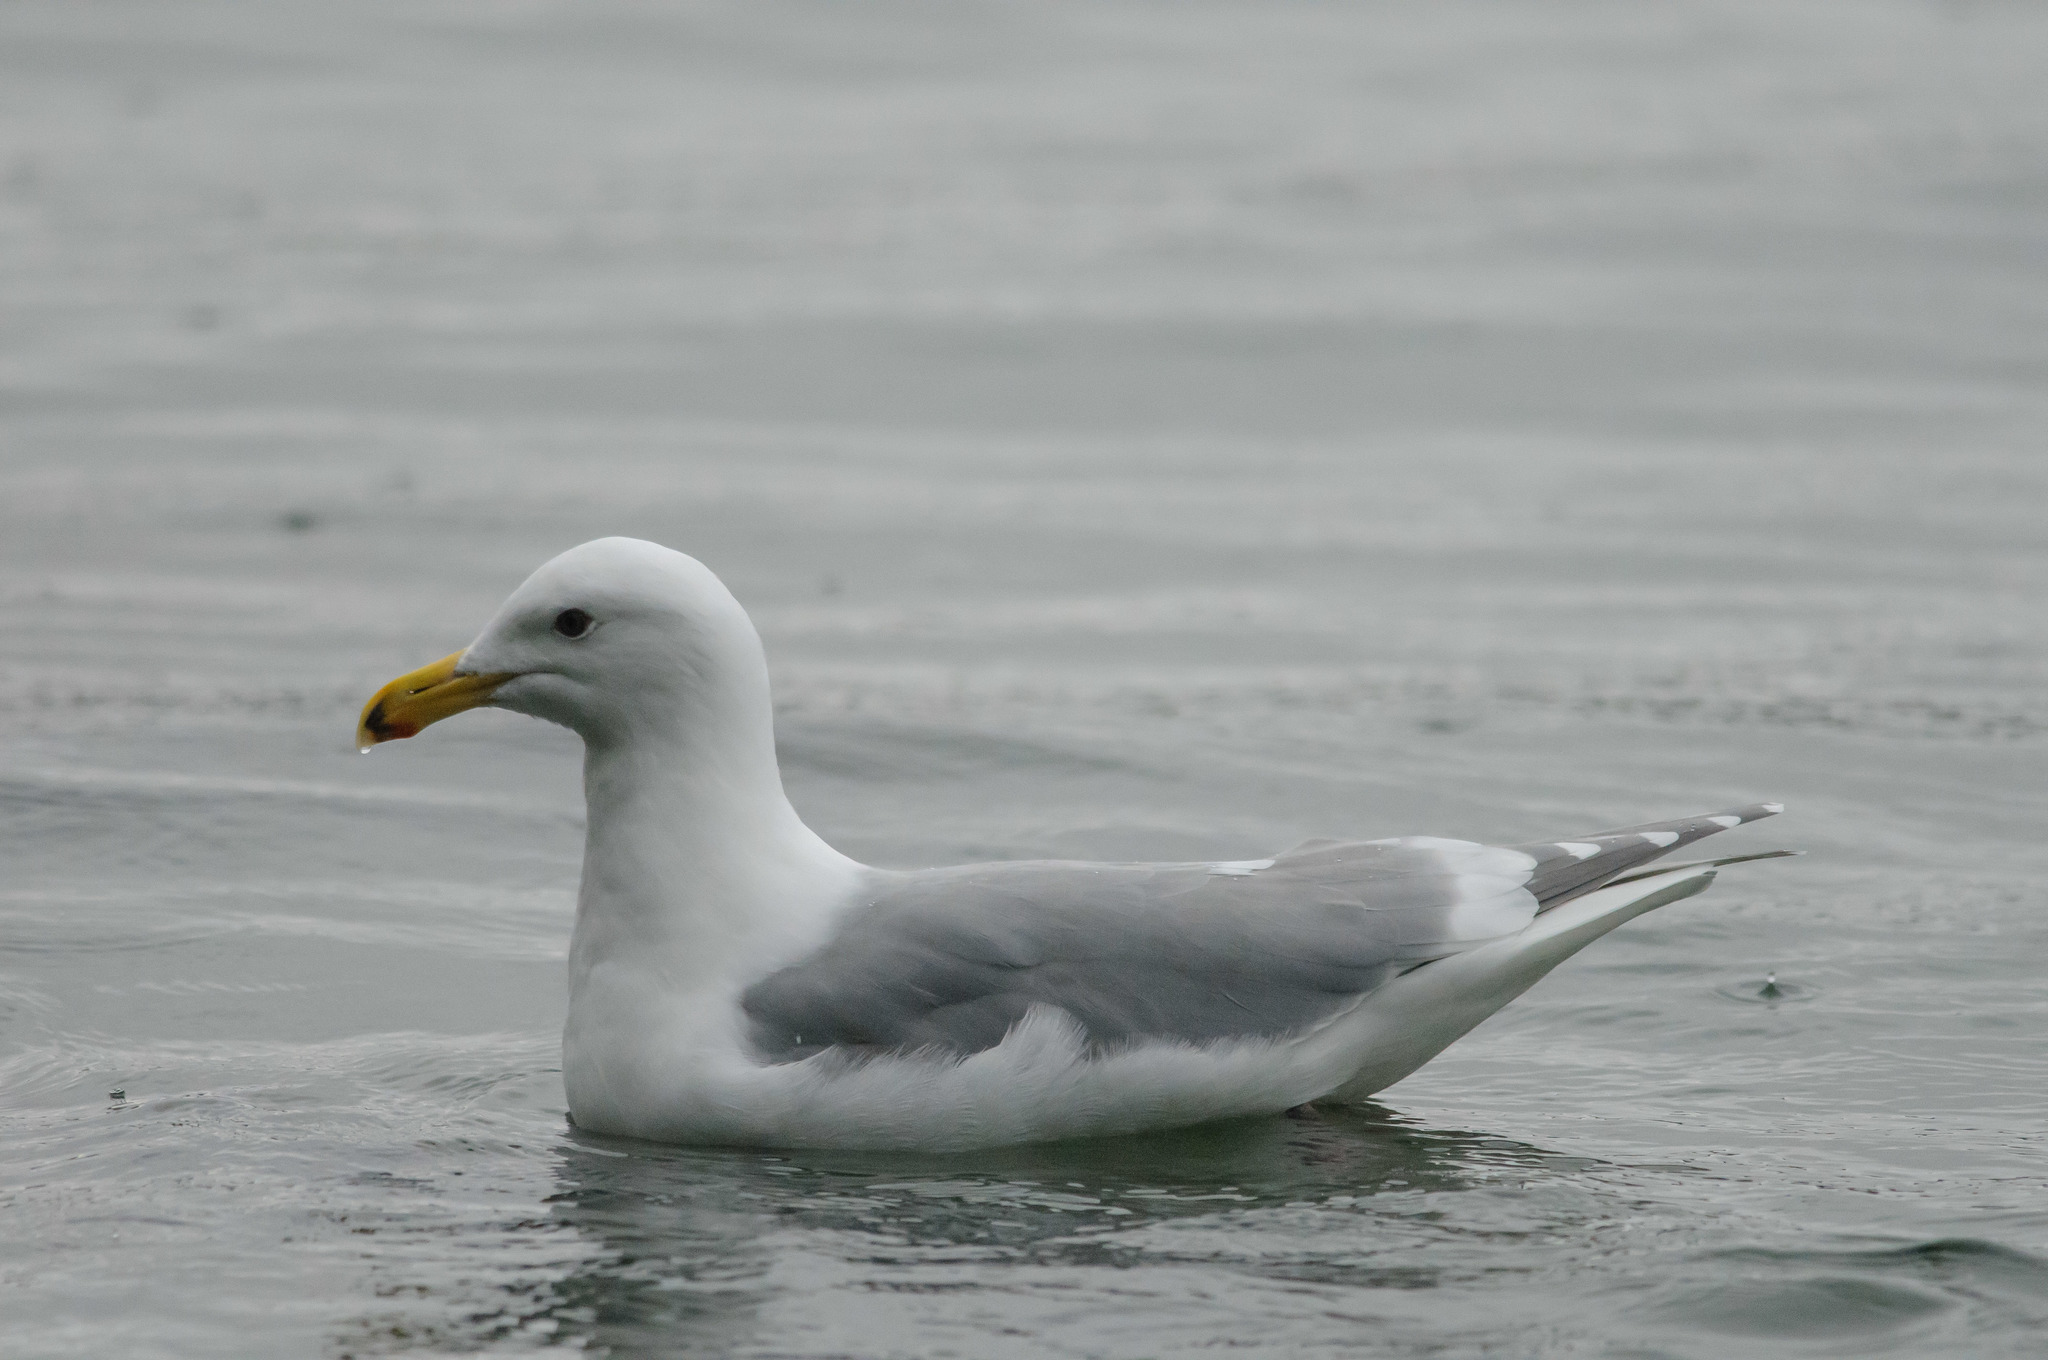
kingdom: Animalia
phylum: Chordata
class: Aves
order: Charadriiformes
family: Laridae
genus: Larus
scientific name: Larus glaucescens
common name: Glaucous-winged gull
